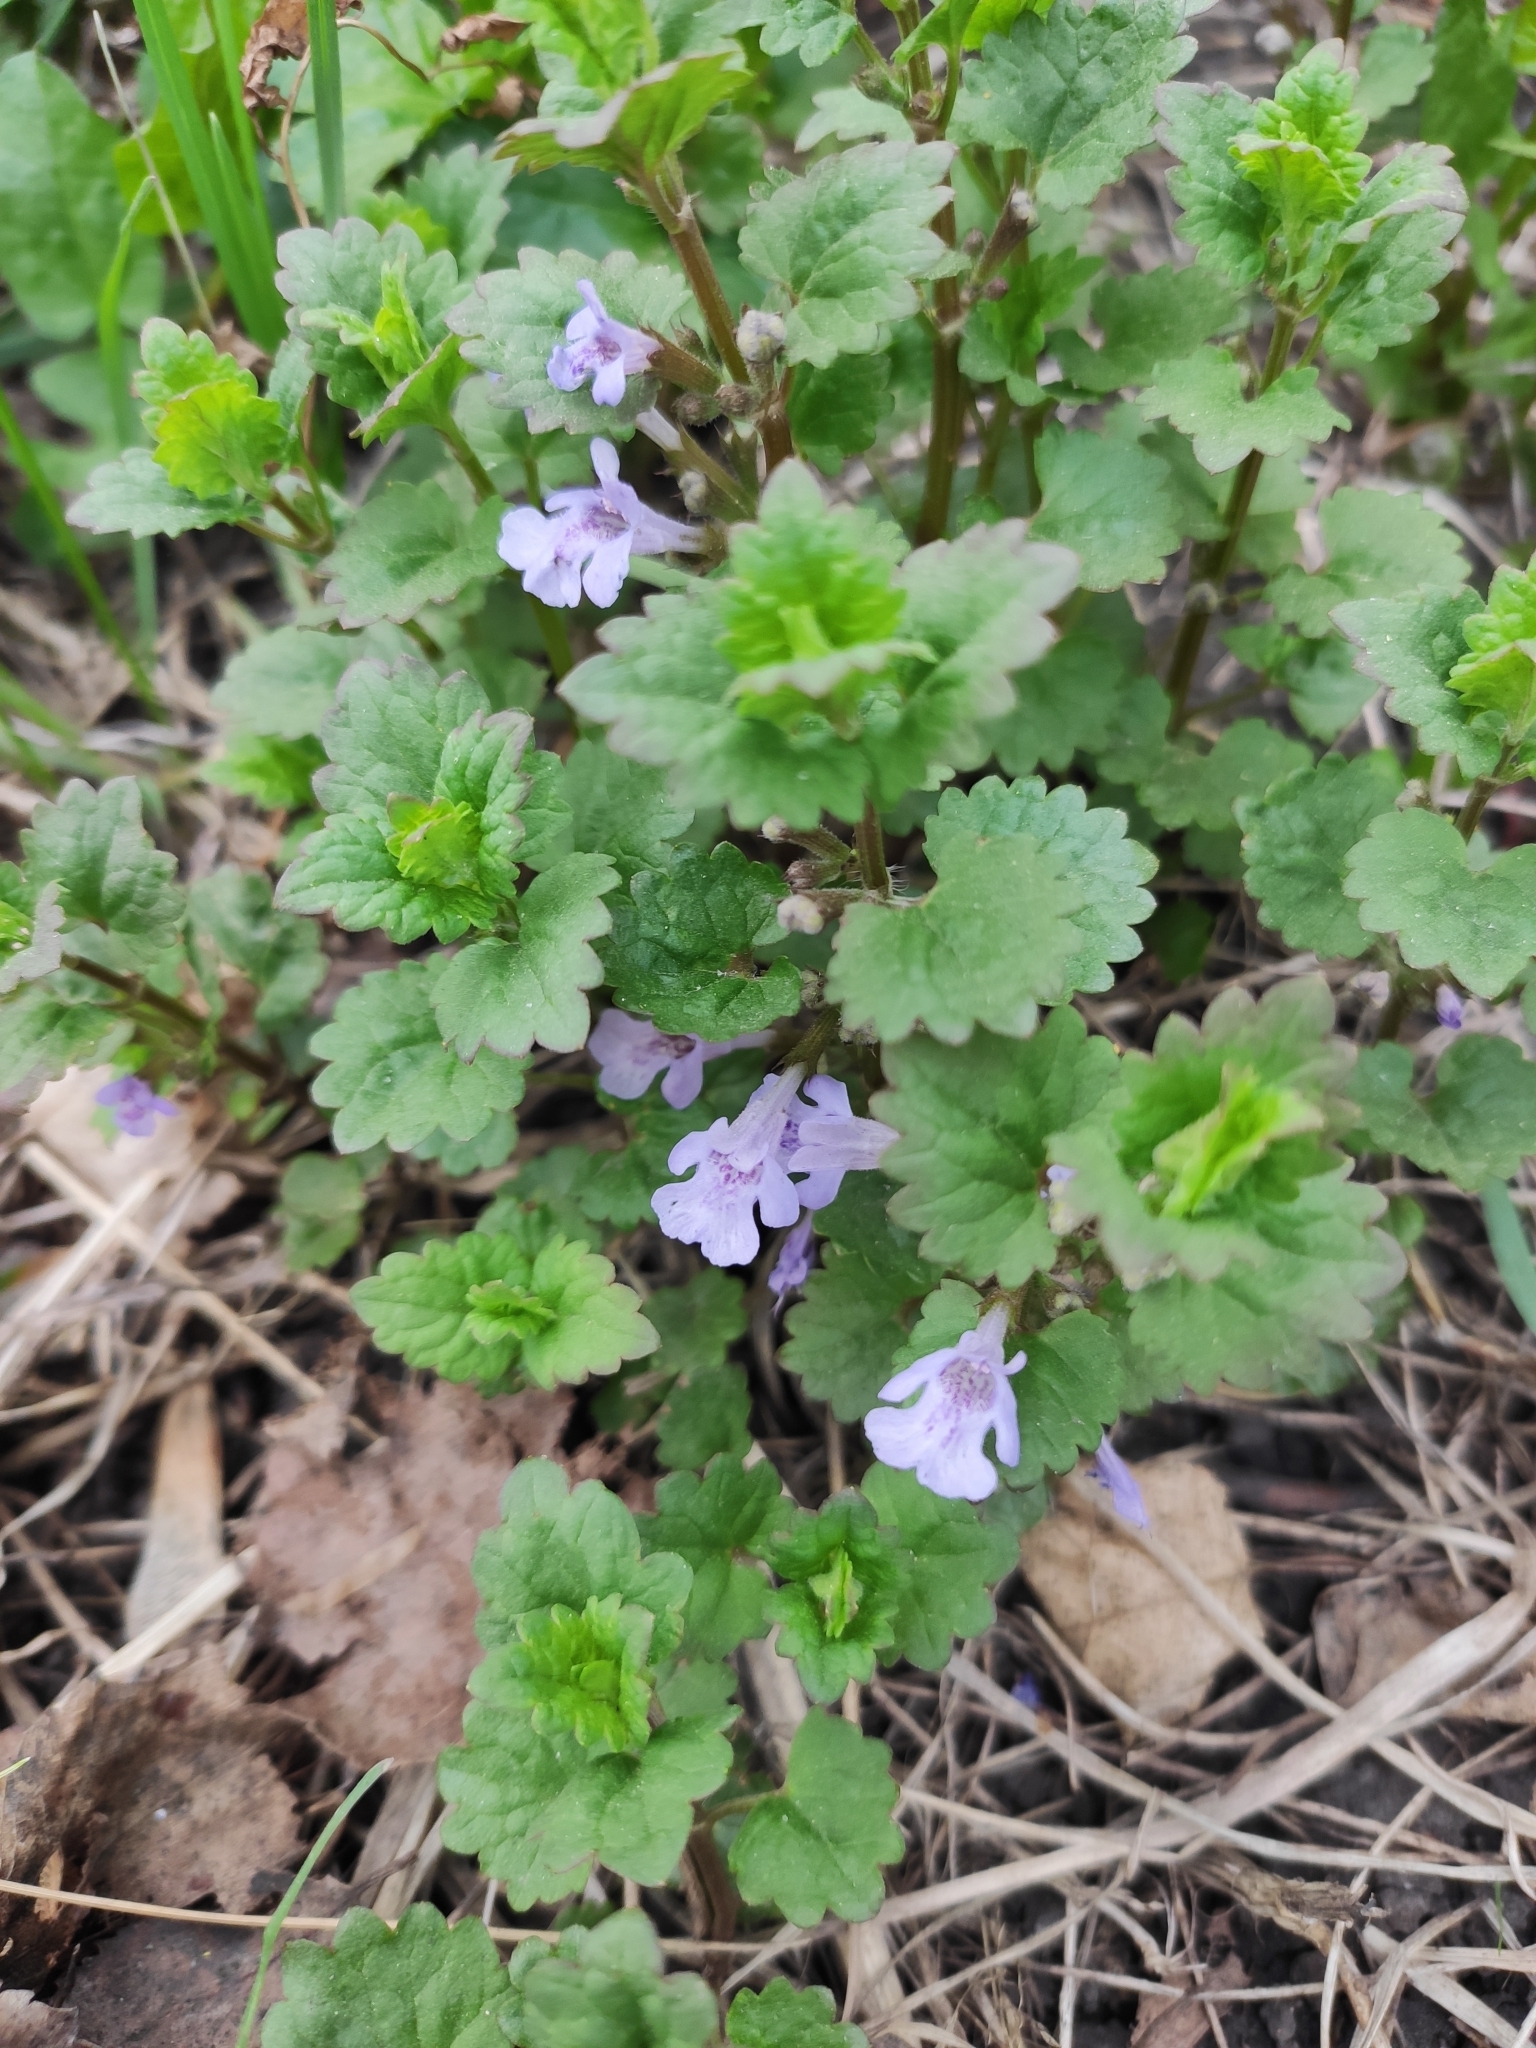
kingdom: Plantae
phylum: Tracheophyta
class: Magnoliopsida
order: Lamiales
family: Lamiaceae
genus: Glechoma
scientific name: Glechoma hederacea
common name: Ground ivy
